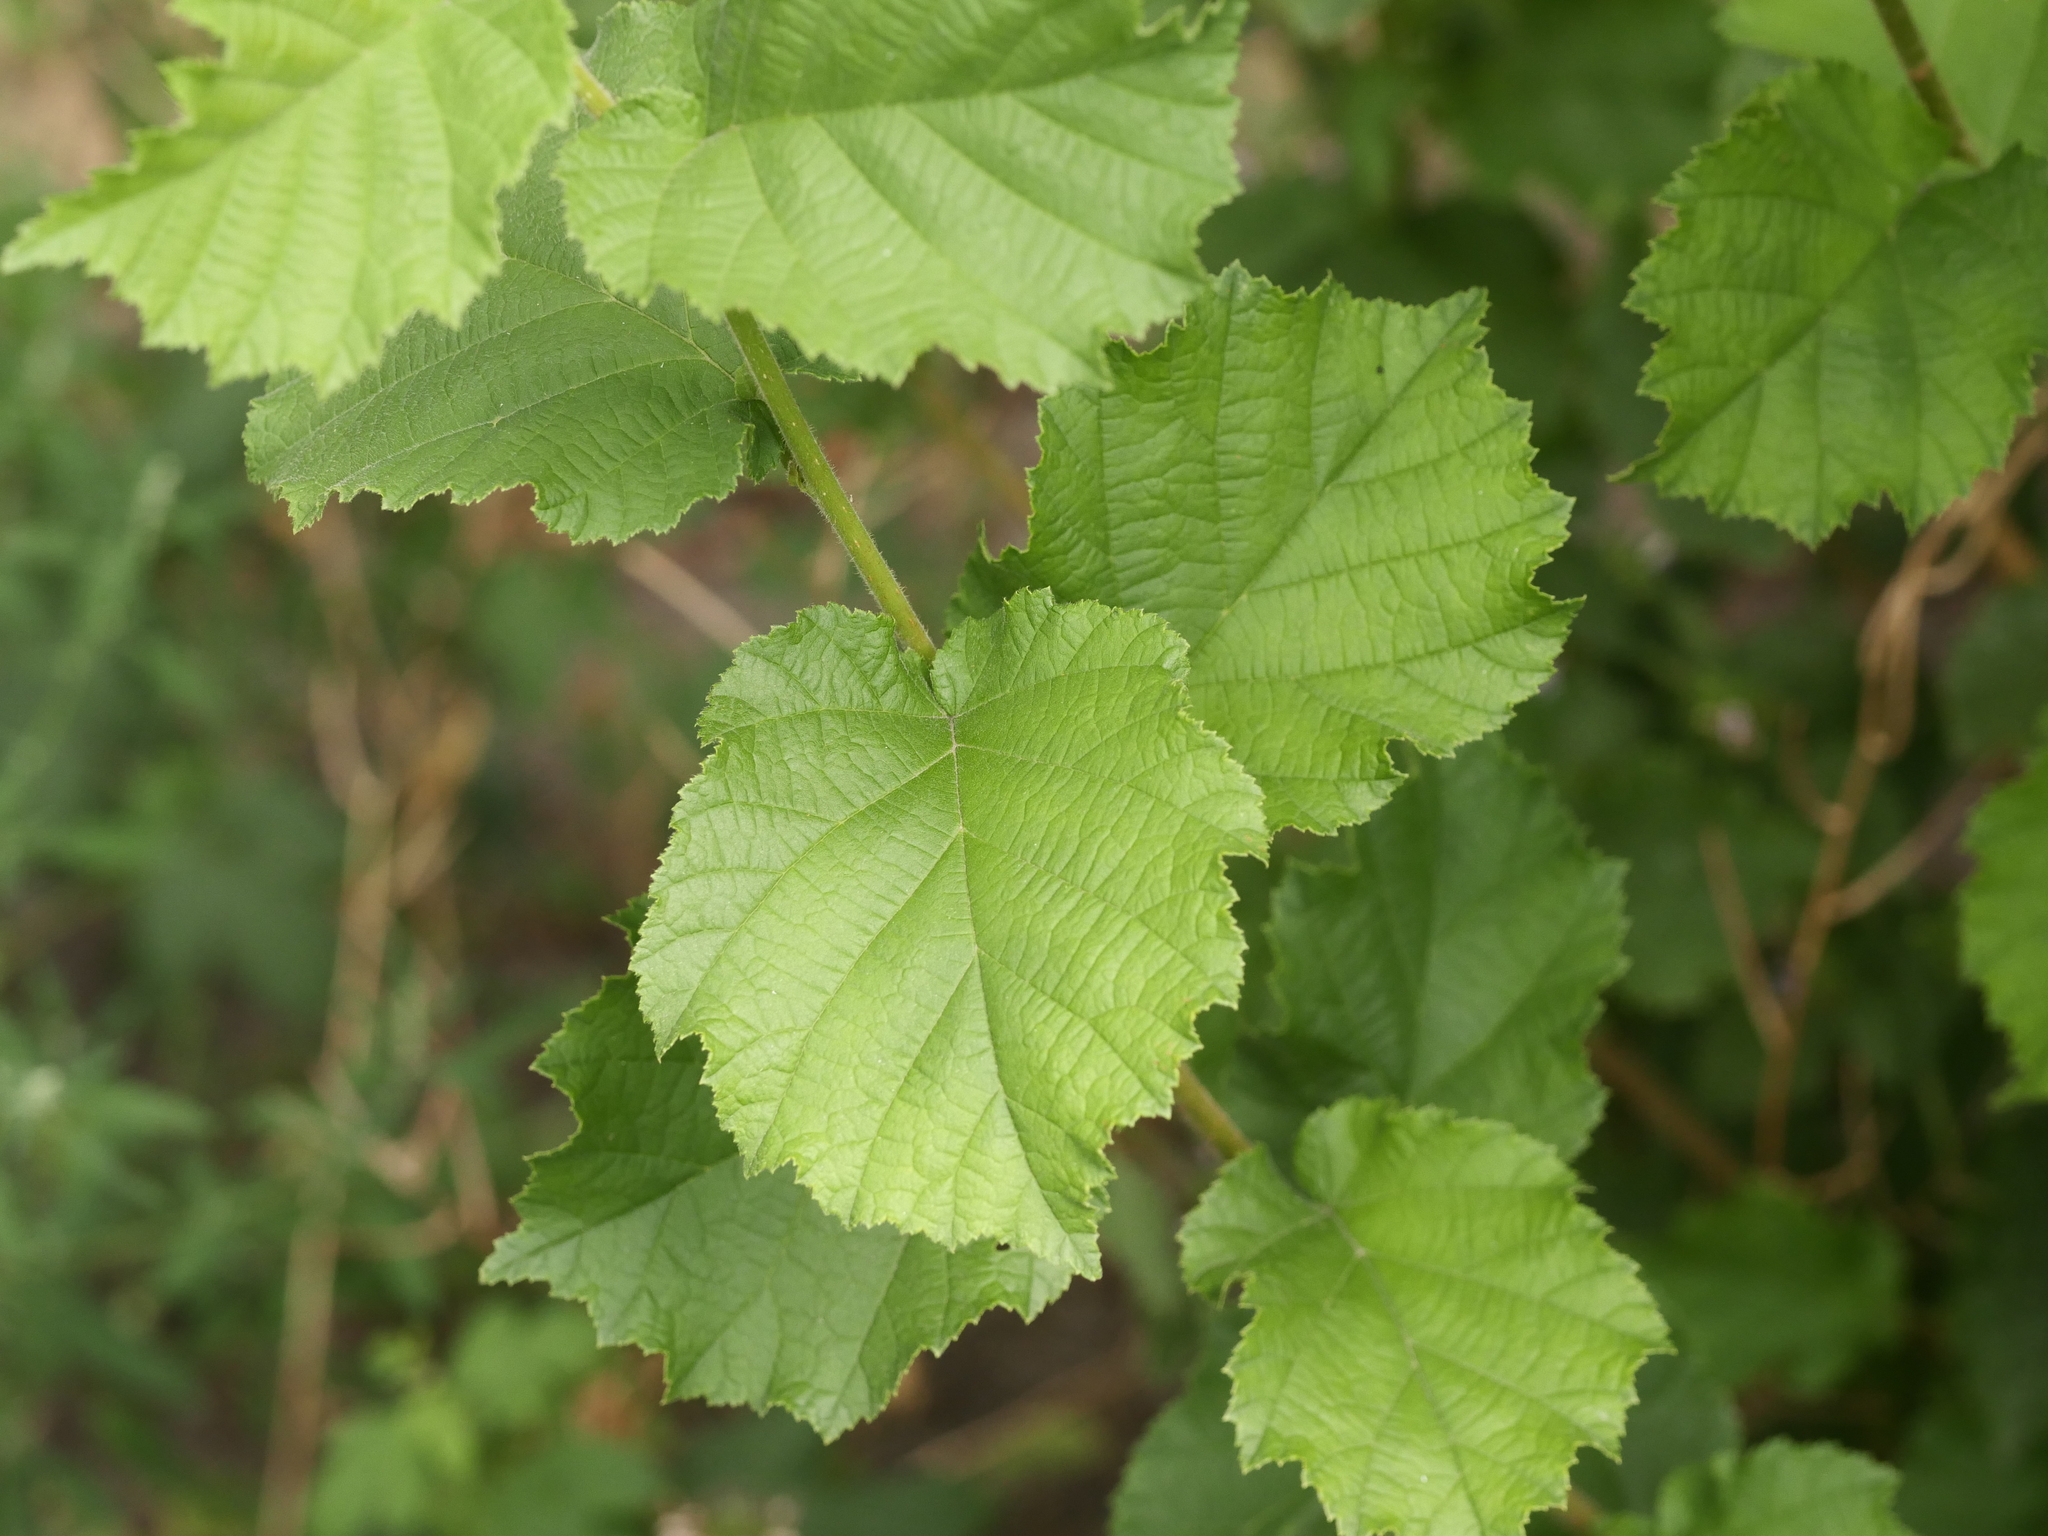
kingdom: Plantae
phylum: Tracheophyta
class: Magnoliopsida
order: Fagales
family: Betulaceae
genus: Corylus
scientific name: Corylus avellana
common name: European hazel
